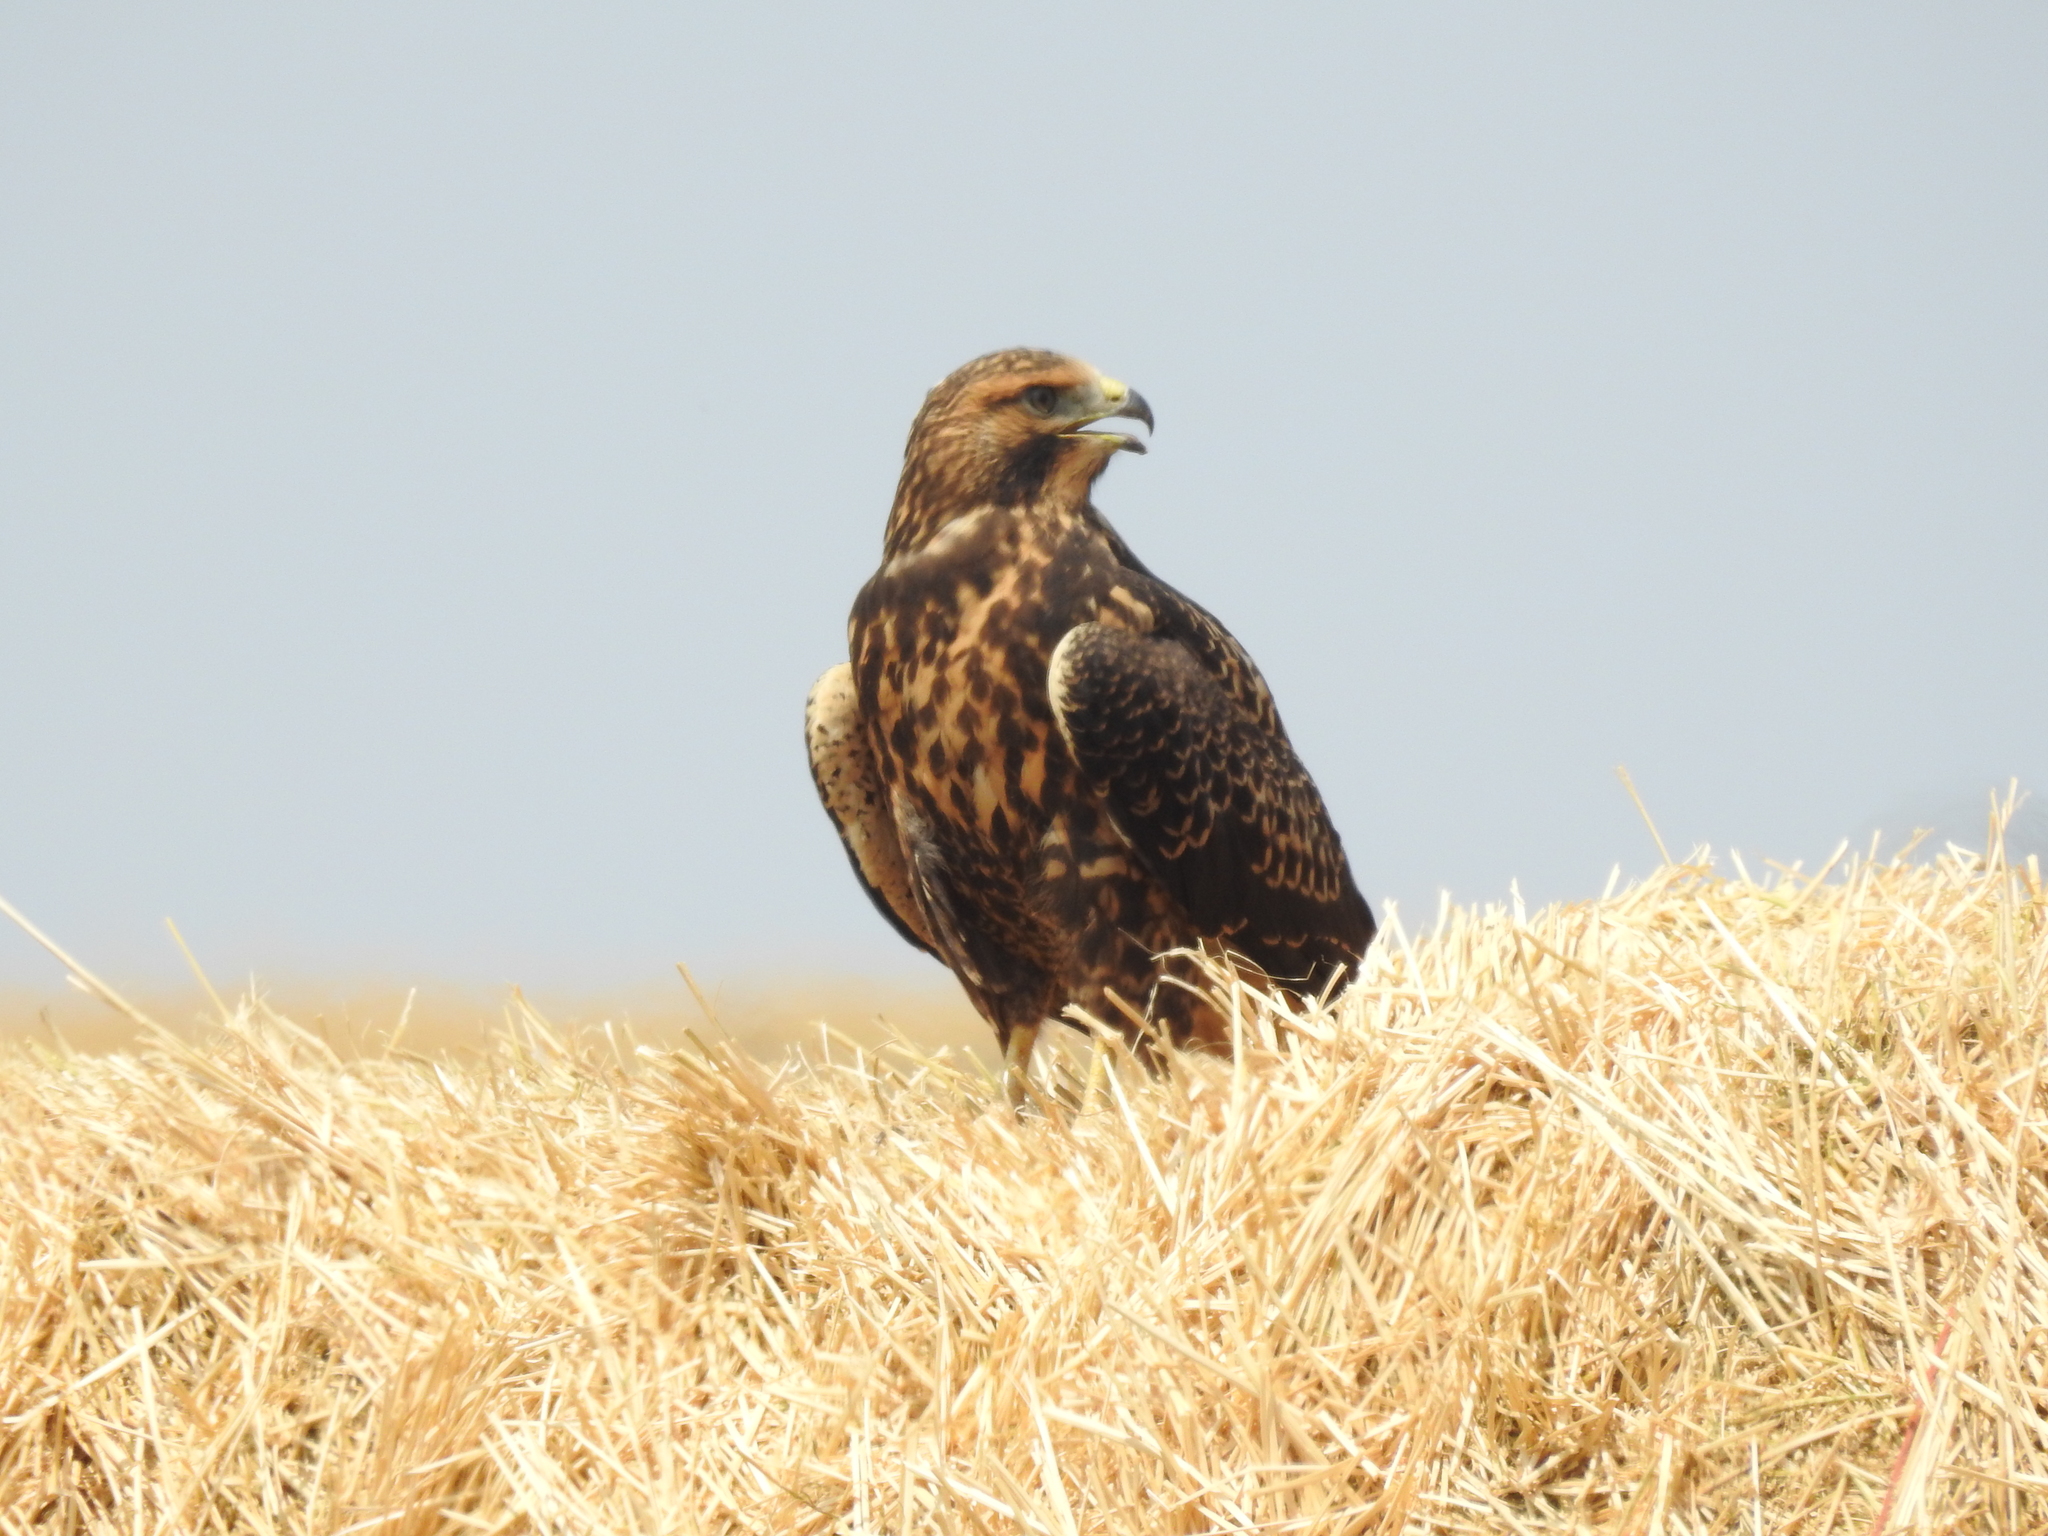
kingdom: Animalia
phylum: Chordata
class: Aves
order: Accipitriformes
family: Accipitridae
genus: Buteo
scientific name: Buteo swainsoni
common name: Swainson's hawk
